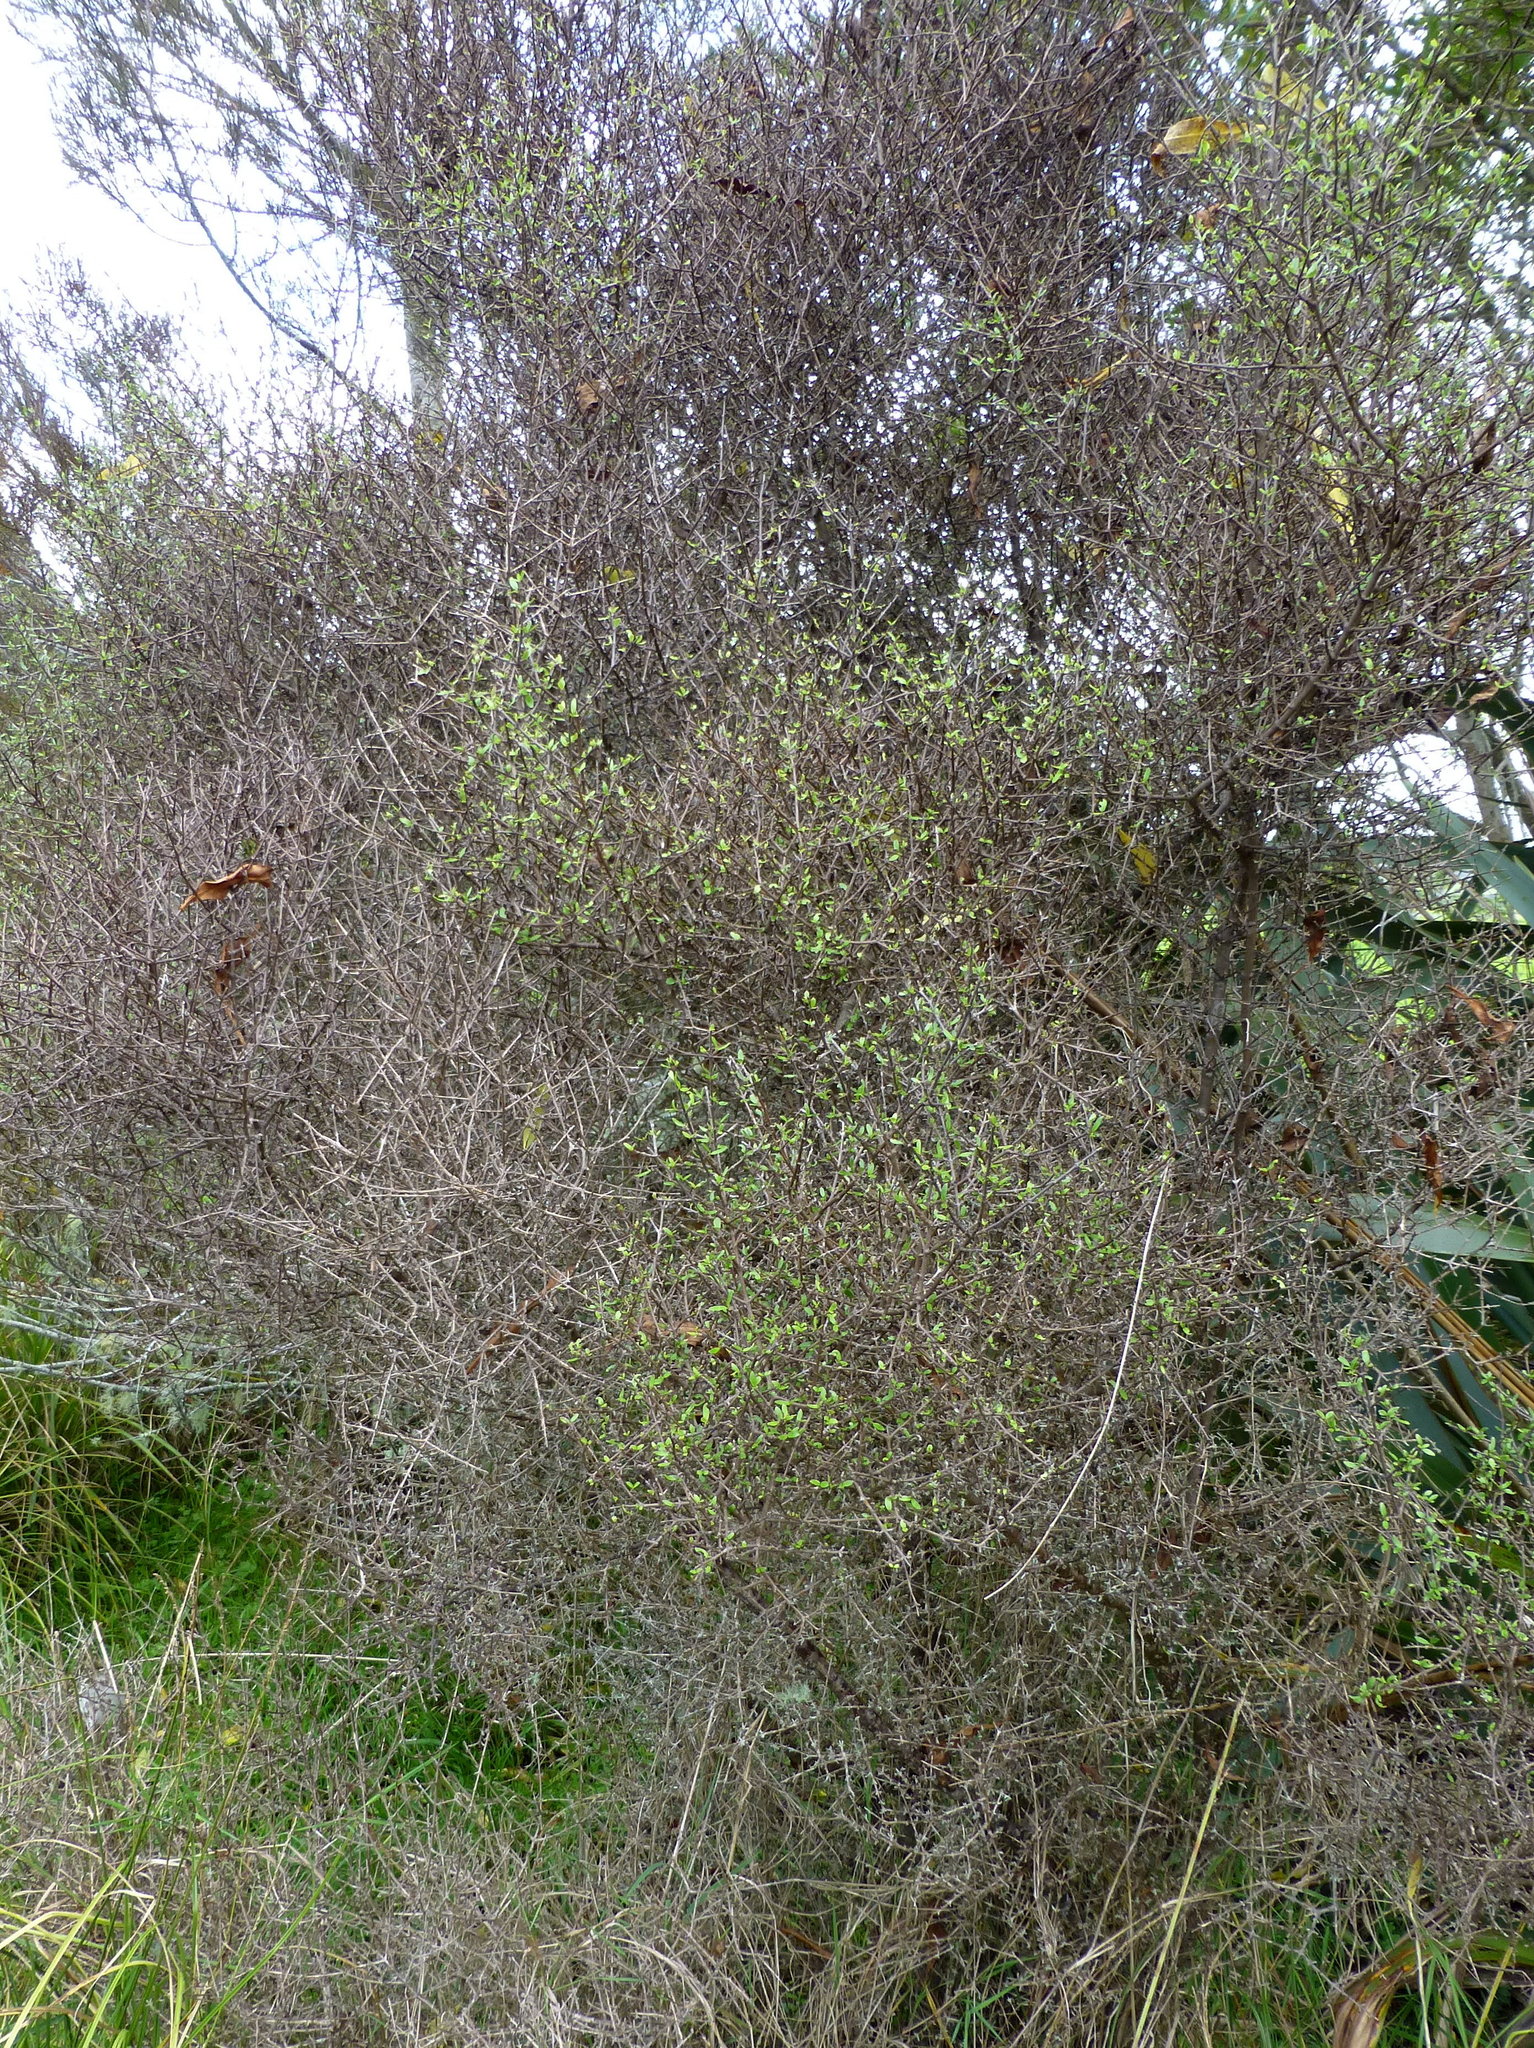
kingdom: Plantae
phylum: Tracheophyta
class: Magnoliopsida
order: Gentianales
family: Rubiaceae
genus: Coprosma
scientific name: Coprosma propinqua
